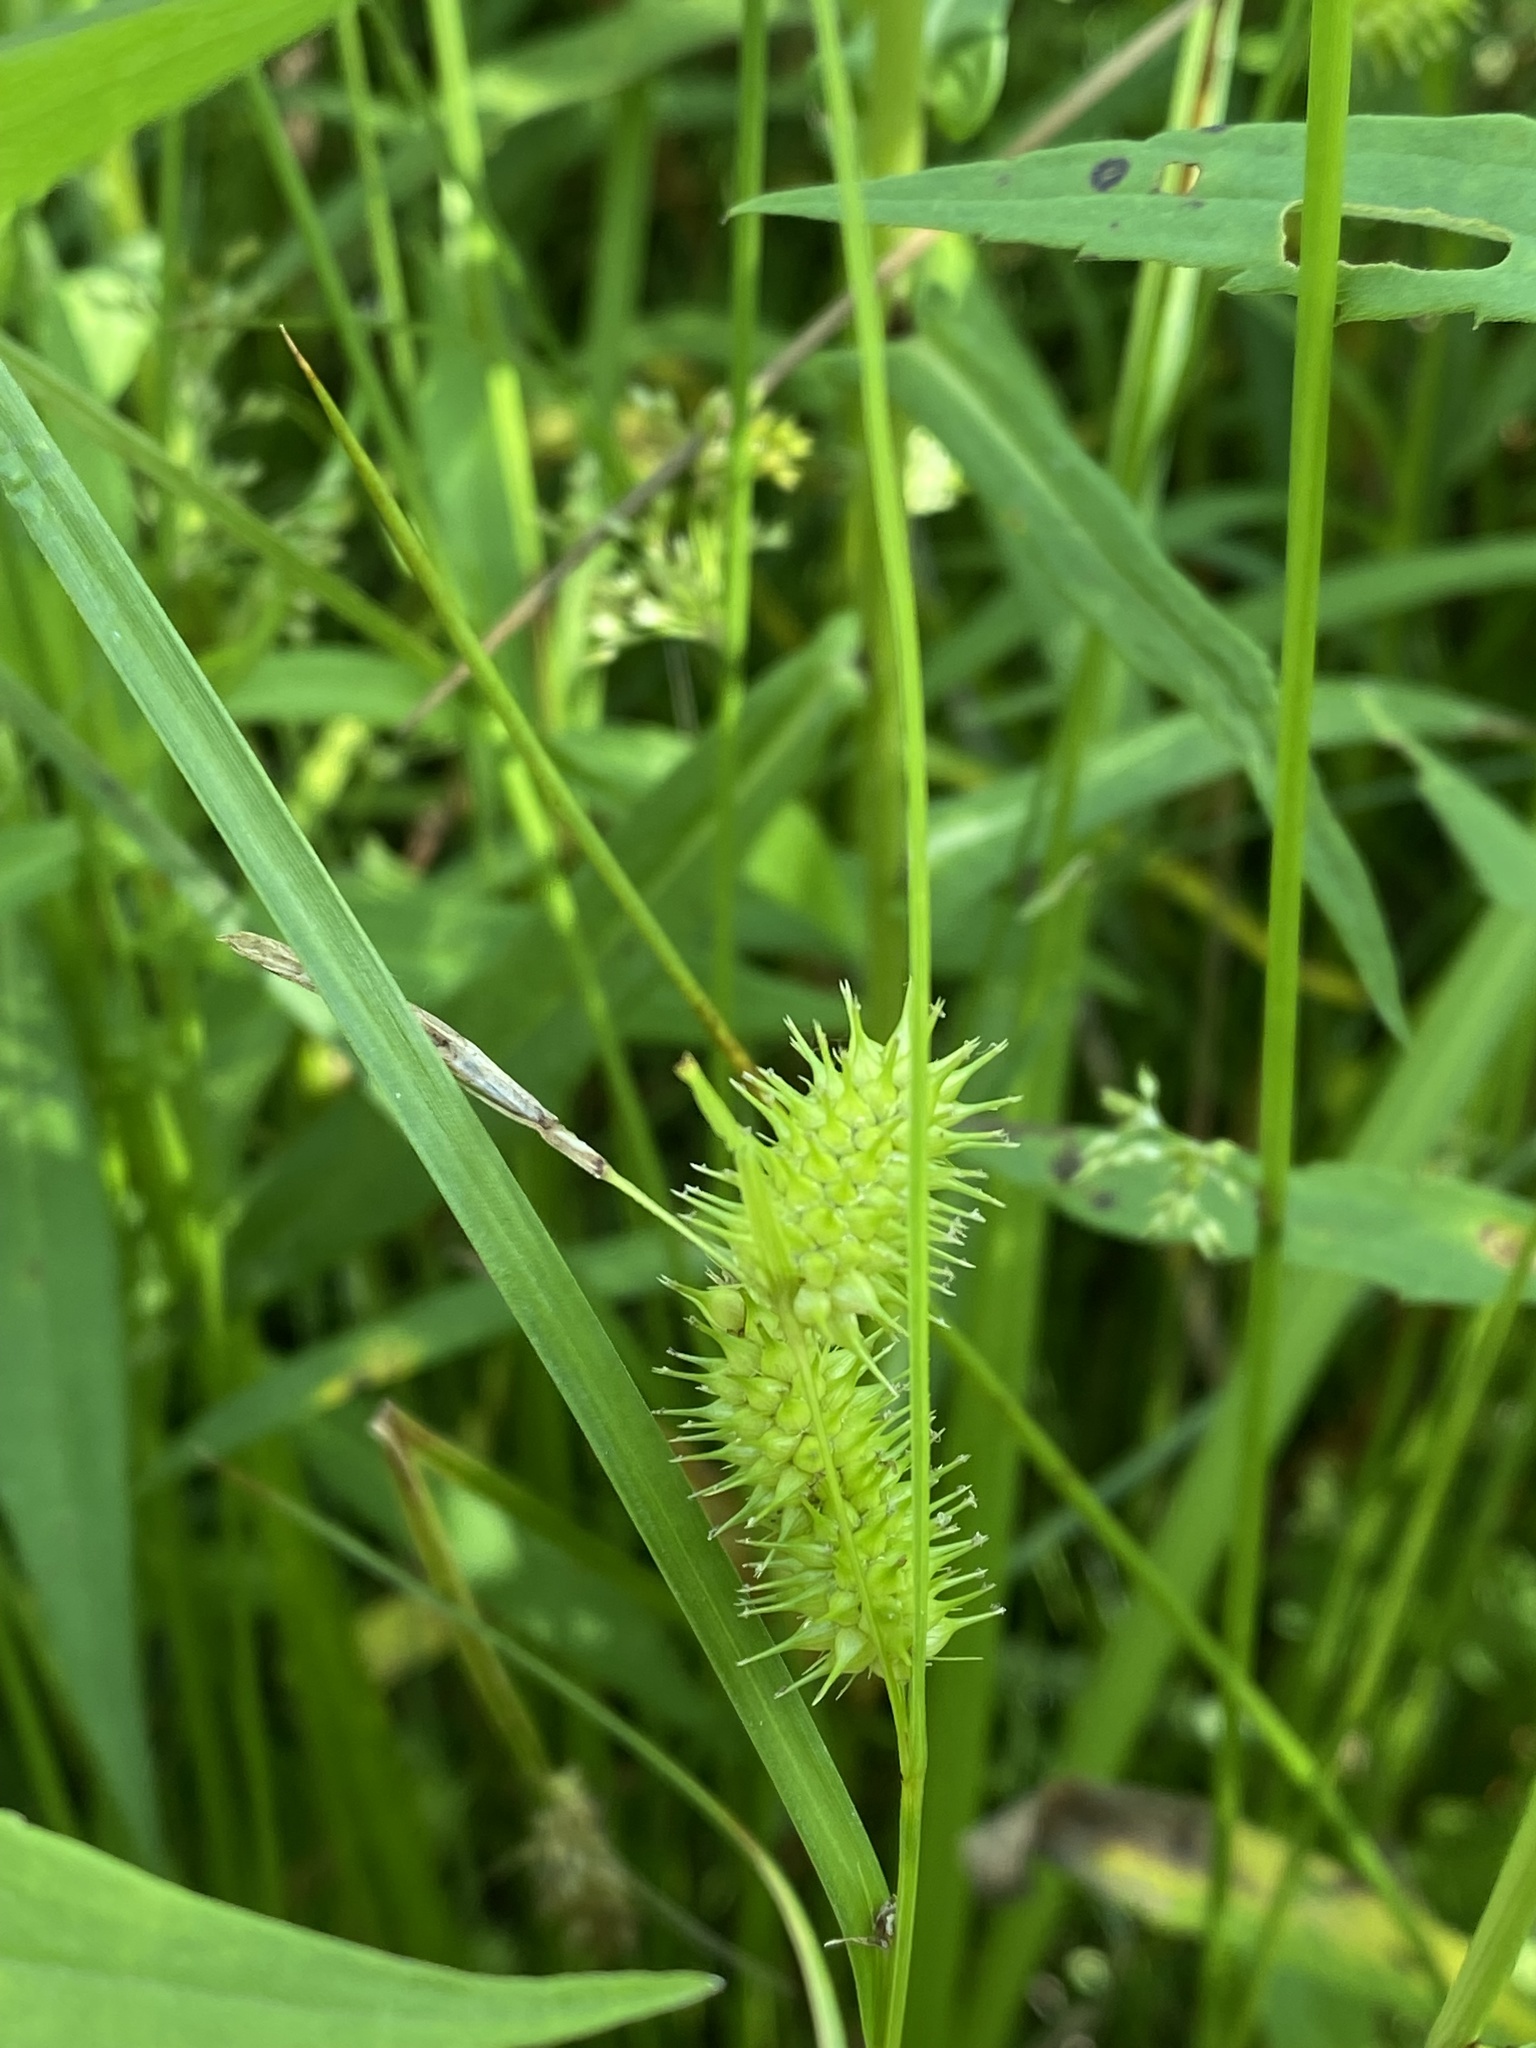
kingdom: Plantae
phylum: Tracheophyta
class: Liliopsida
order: Poales
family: Cyperaceae
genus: Carex
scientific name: Carex hystericina
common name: Bottlebrush sedge
